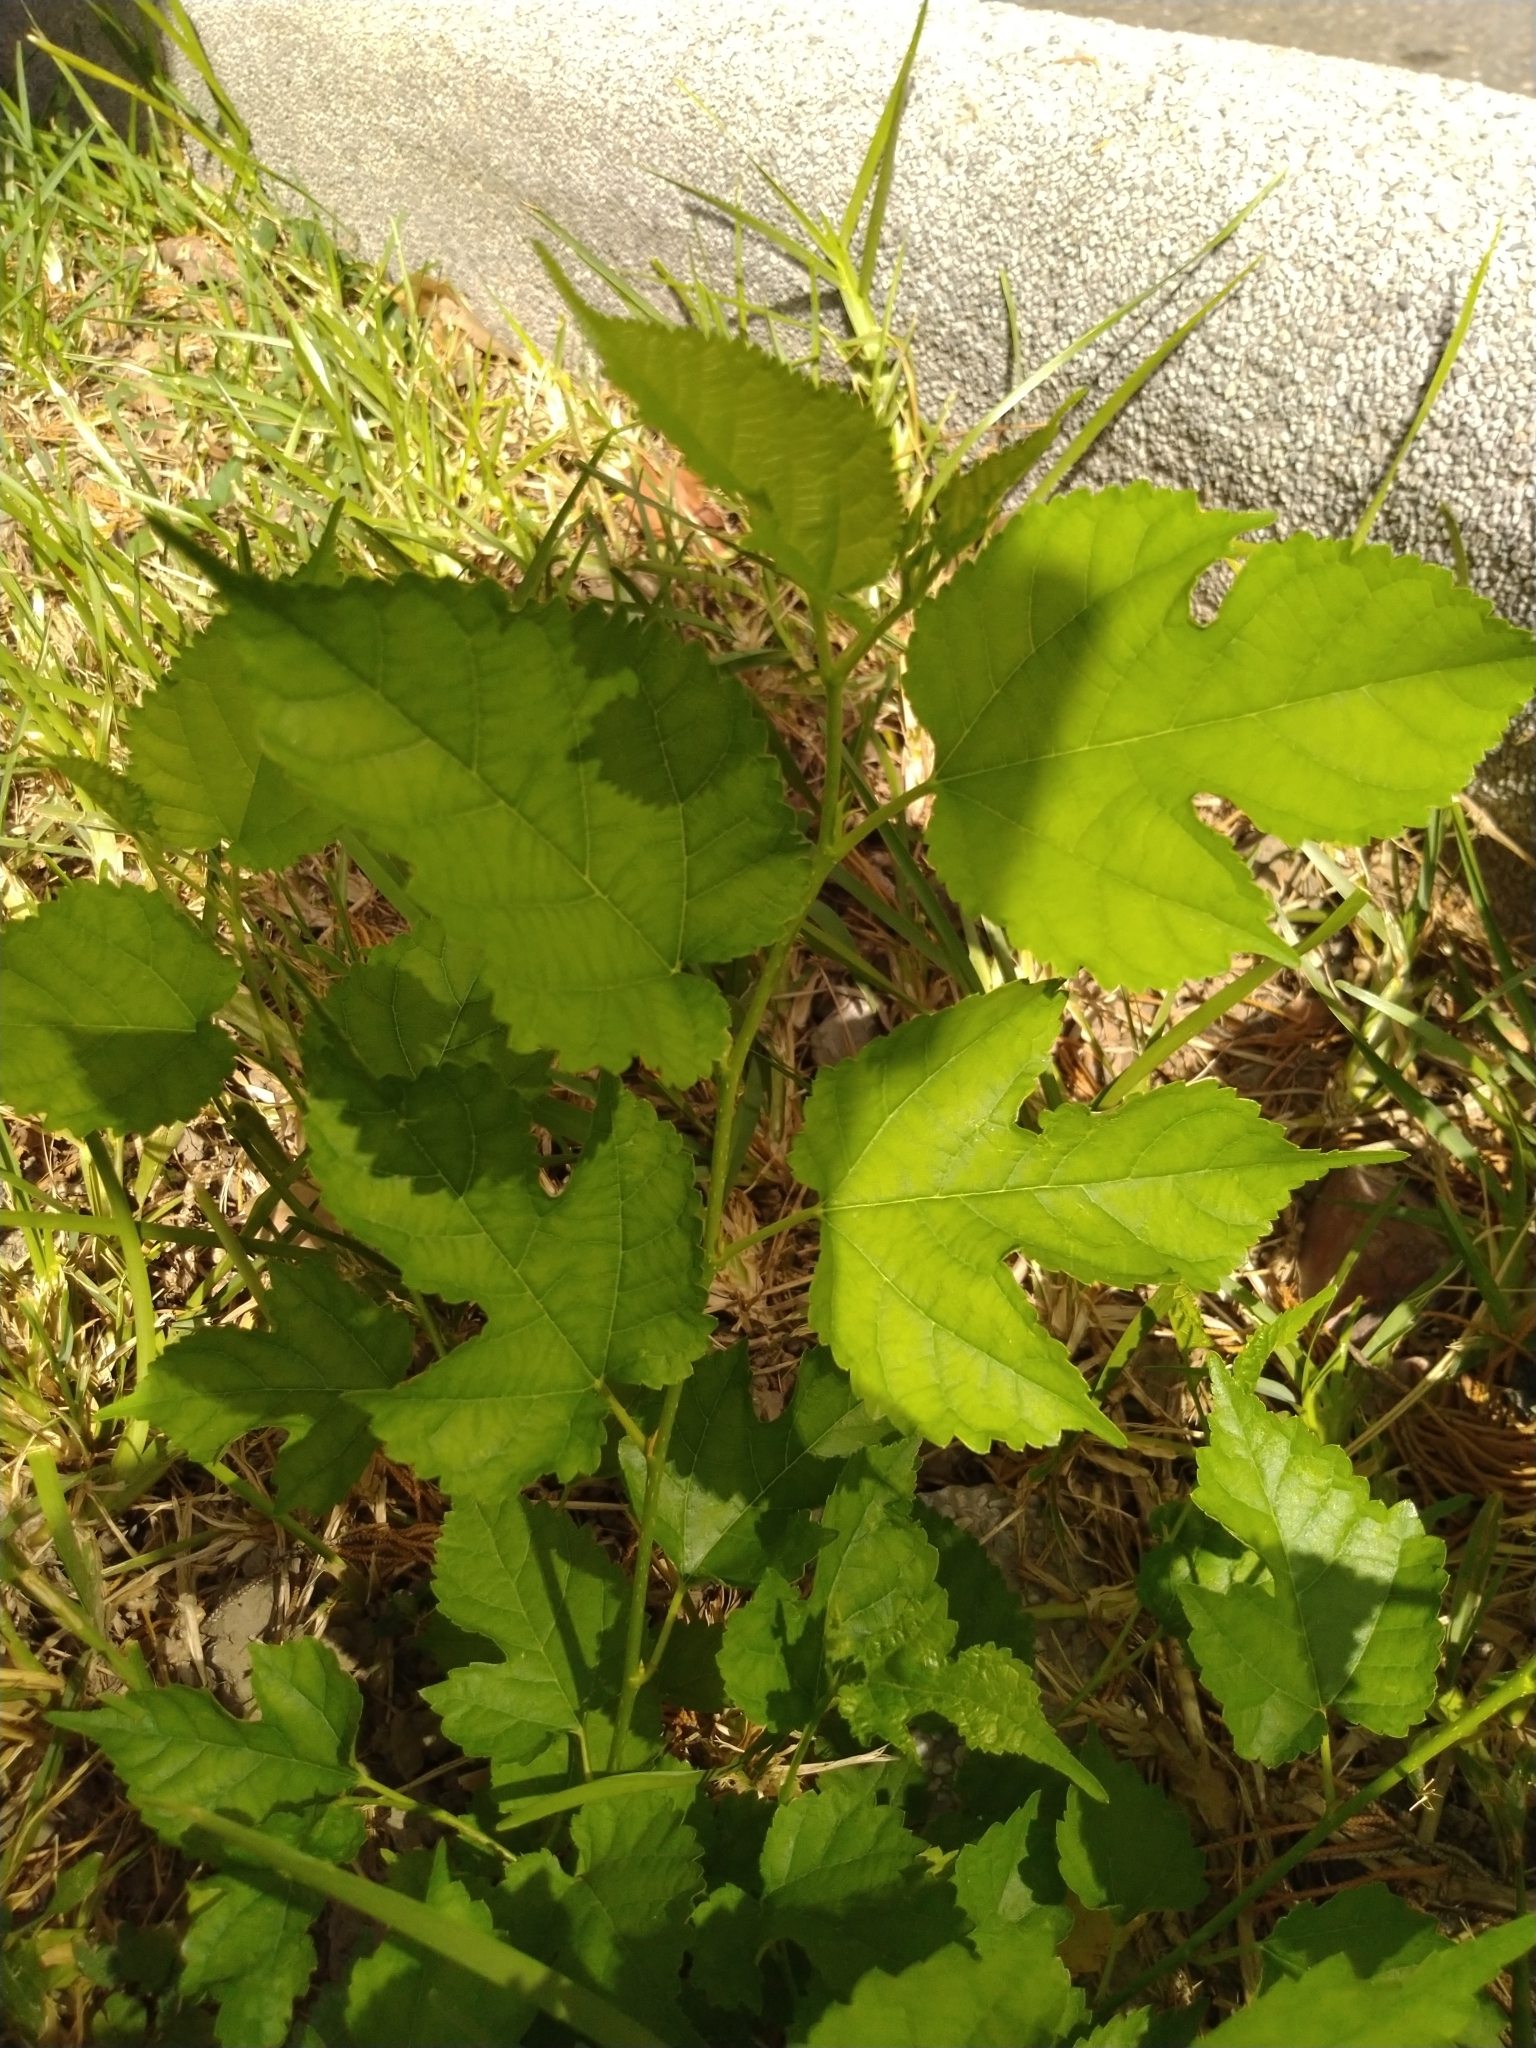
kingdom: Plantae
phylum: Tracheophyta
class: Magnoliopsida
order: Rosales
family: Moraceae
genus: Morus
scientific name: Morus indica
